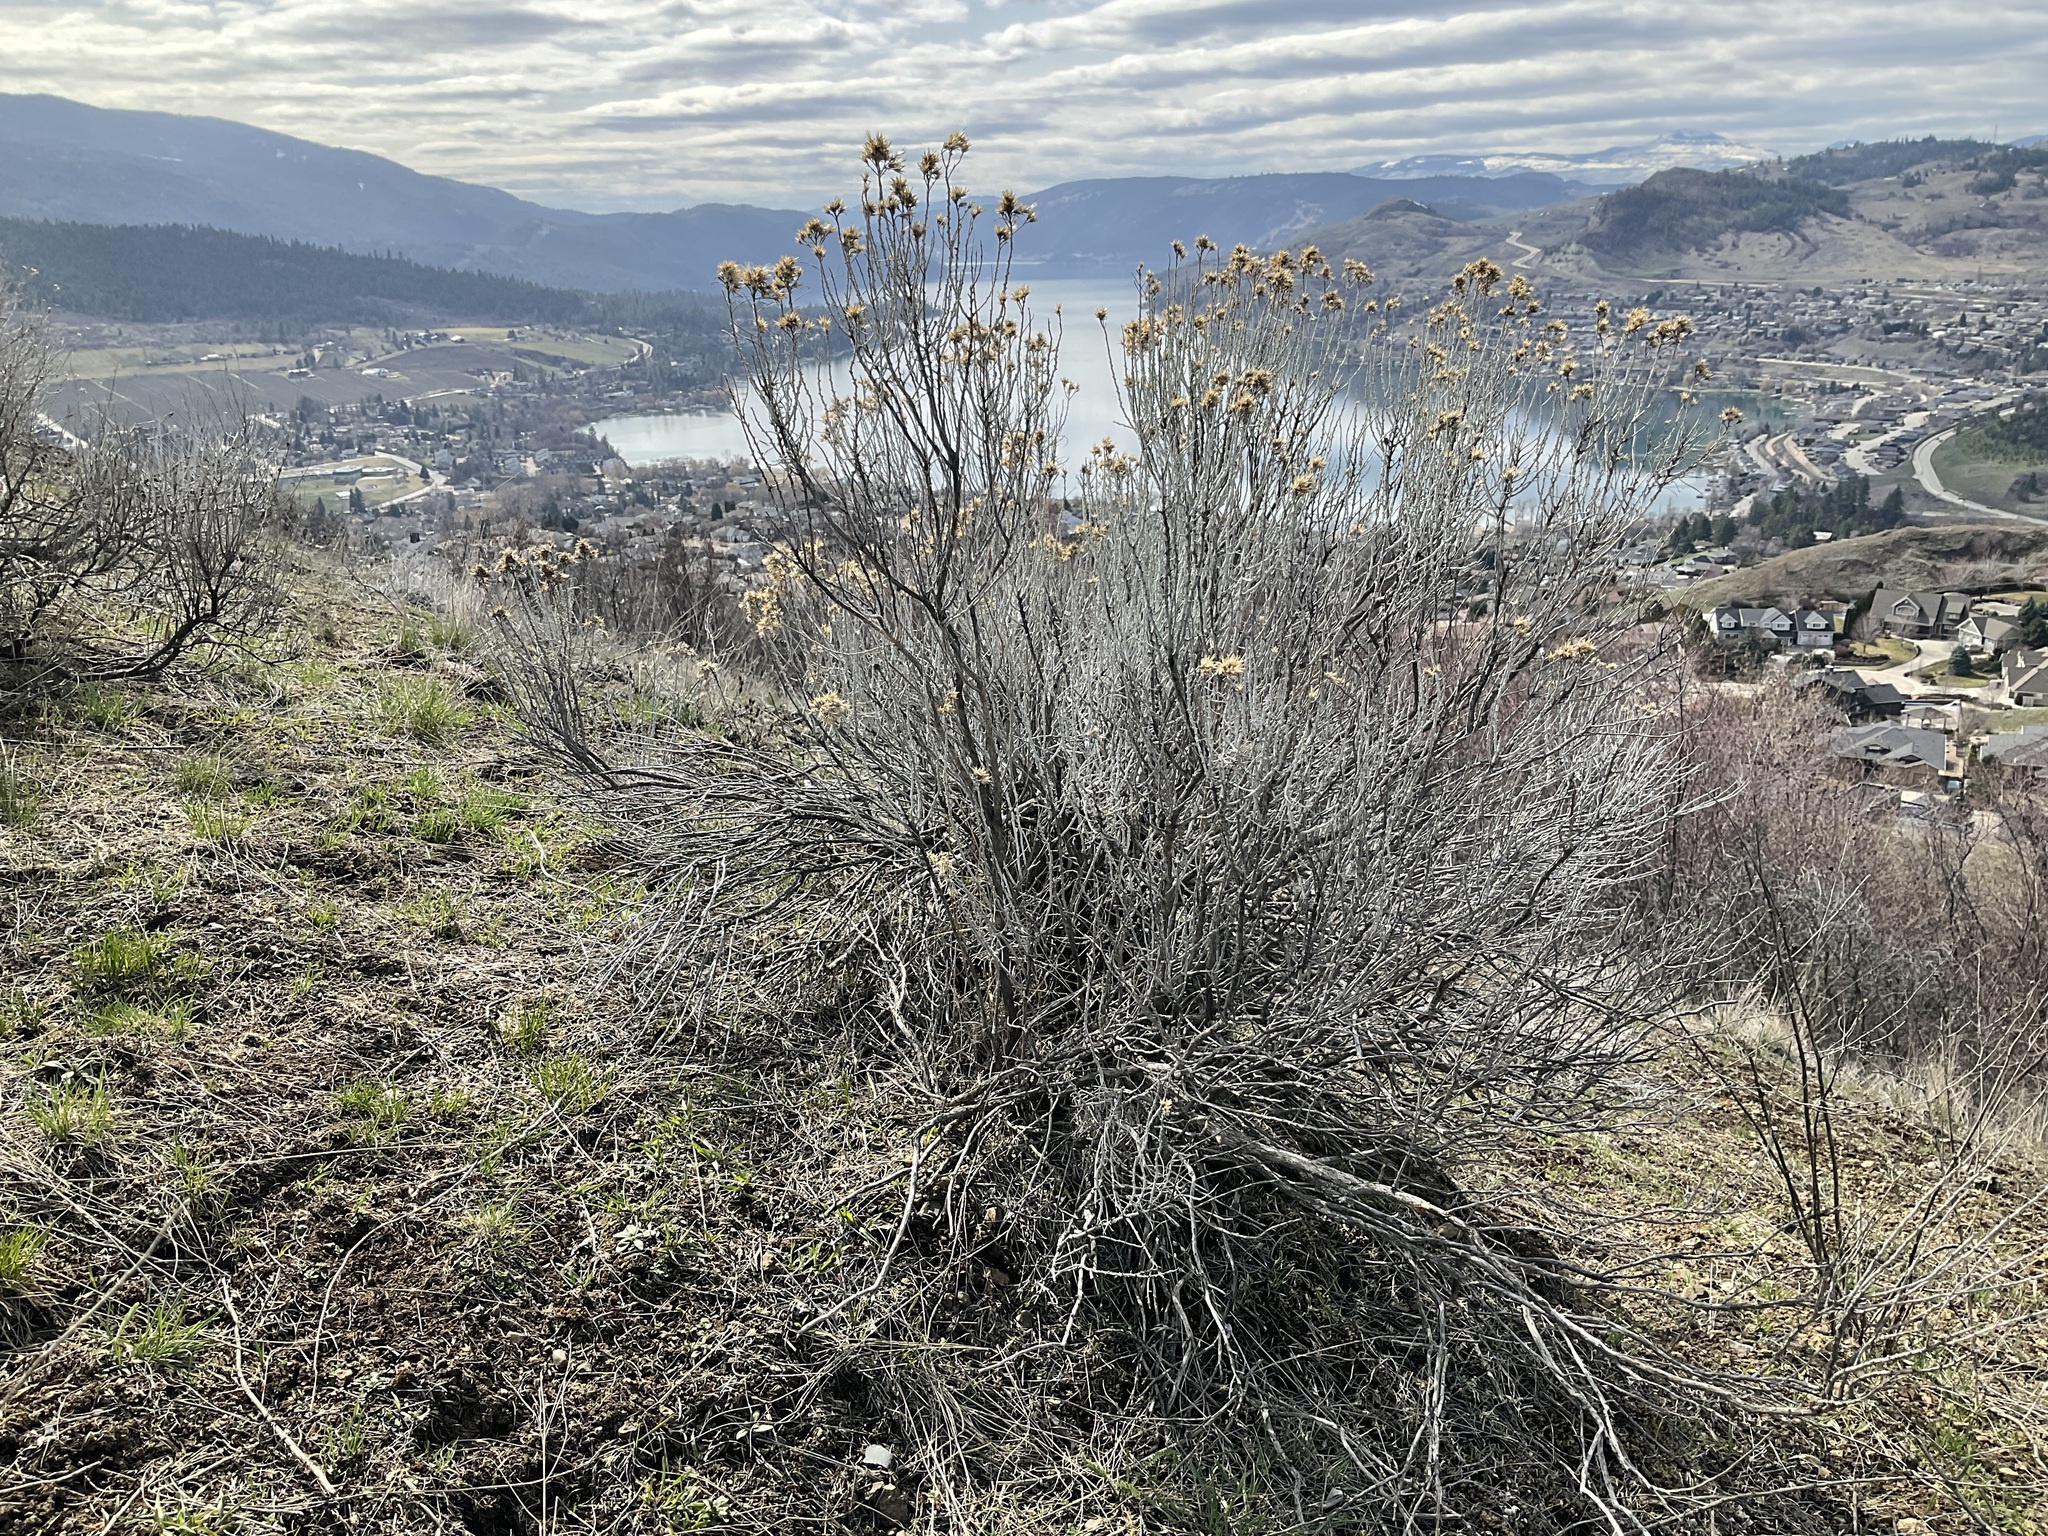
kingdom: Plantae
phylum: Tracheophyta
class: Magnoliopsida
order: Asterales
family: Asteraceae
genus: Ericameria
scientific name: Ericameria nauseosa
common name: Rubber rabbitbrush
